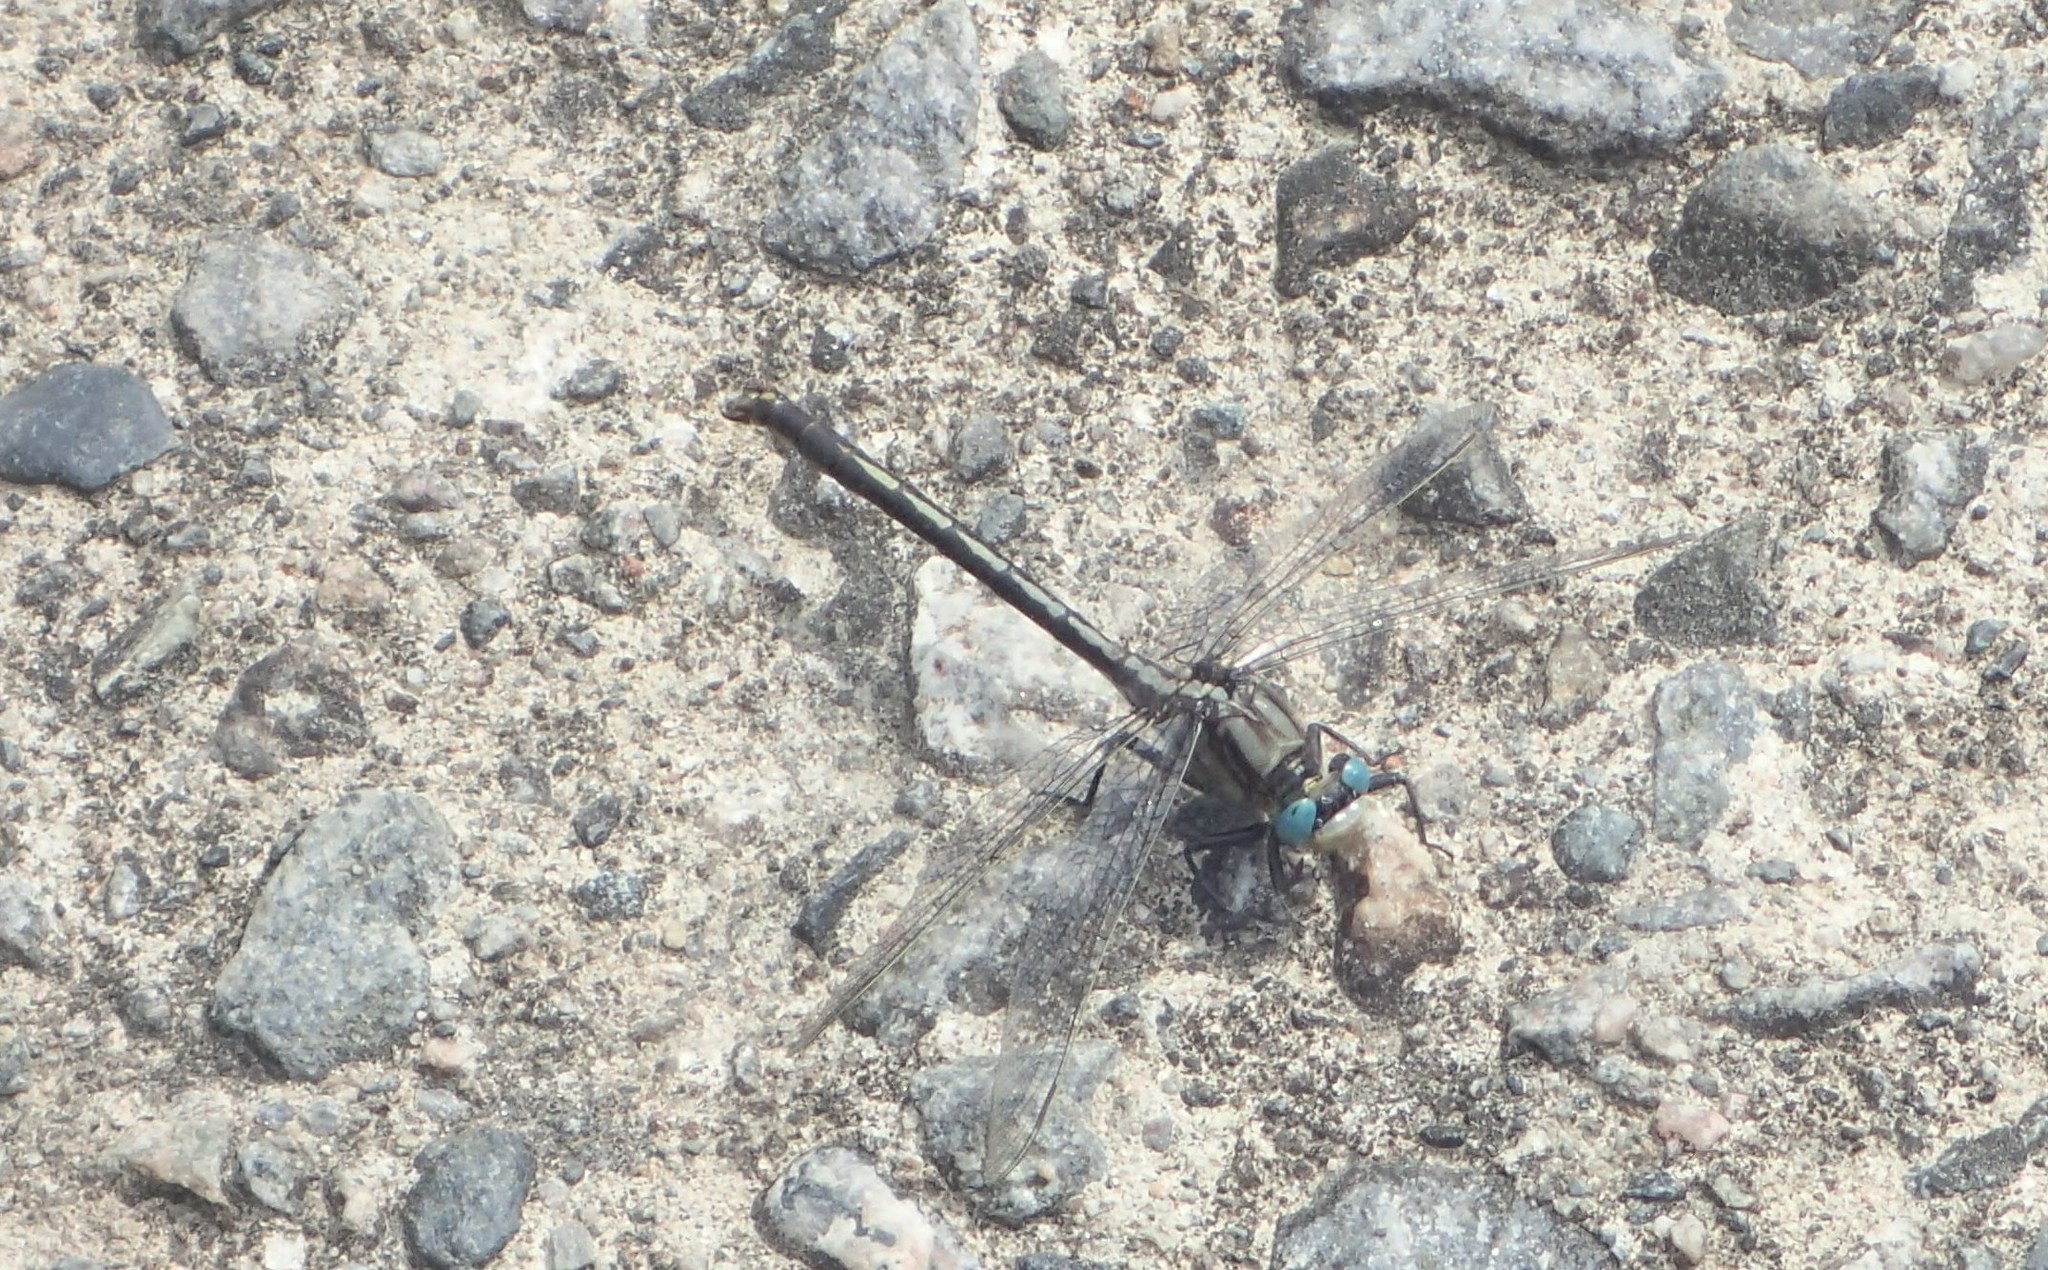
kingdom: Animalia
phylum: Arthropoda
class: Insecta
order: Odonata
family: Gomphidae
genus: Arigomphus
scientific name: Arigomphus cornutus
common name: Horned clubtail
